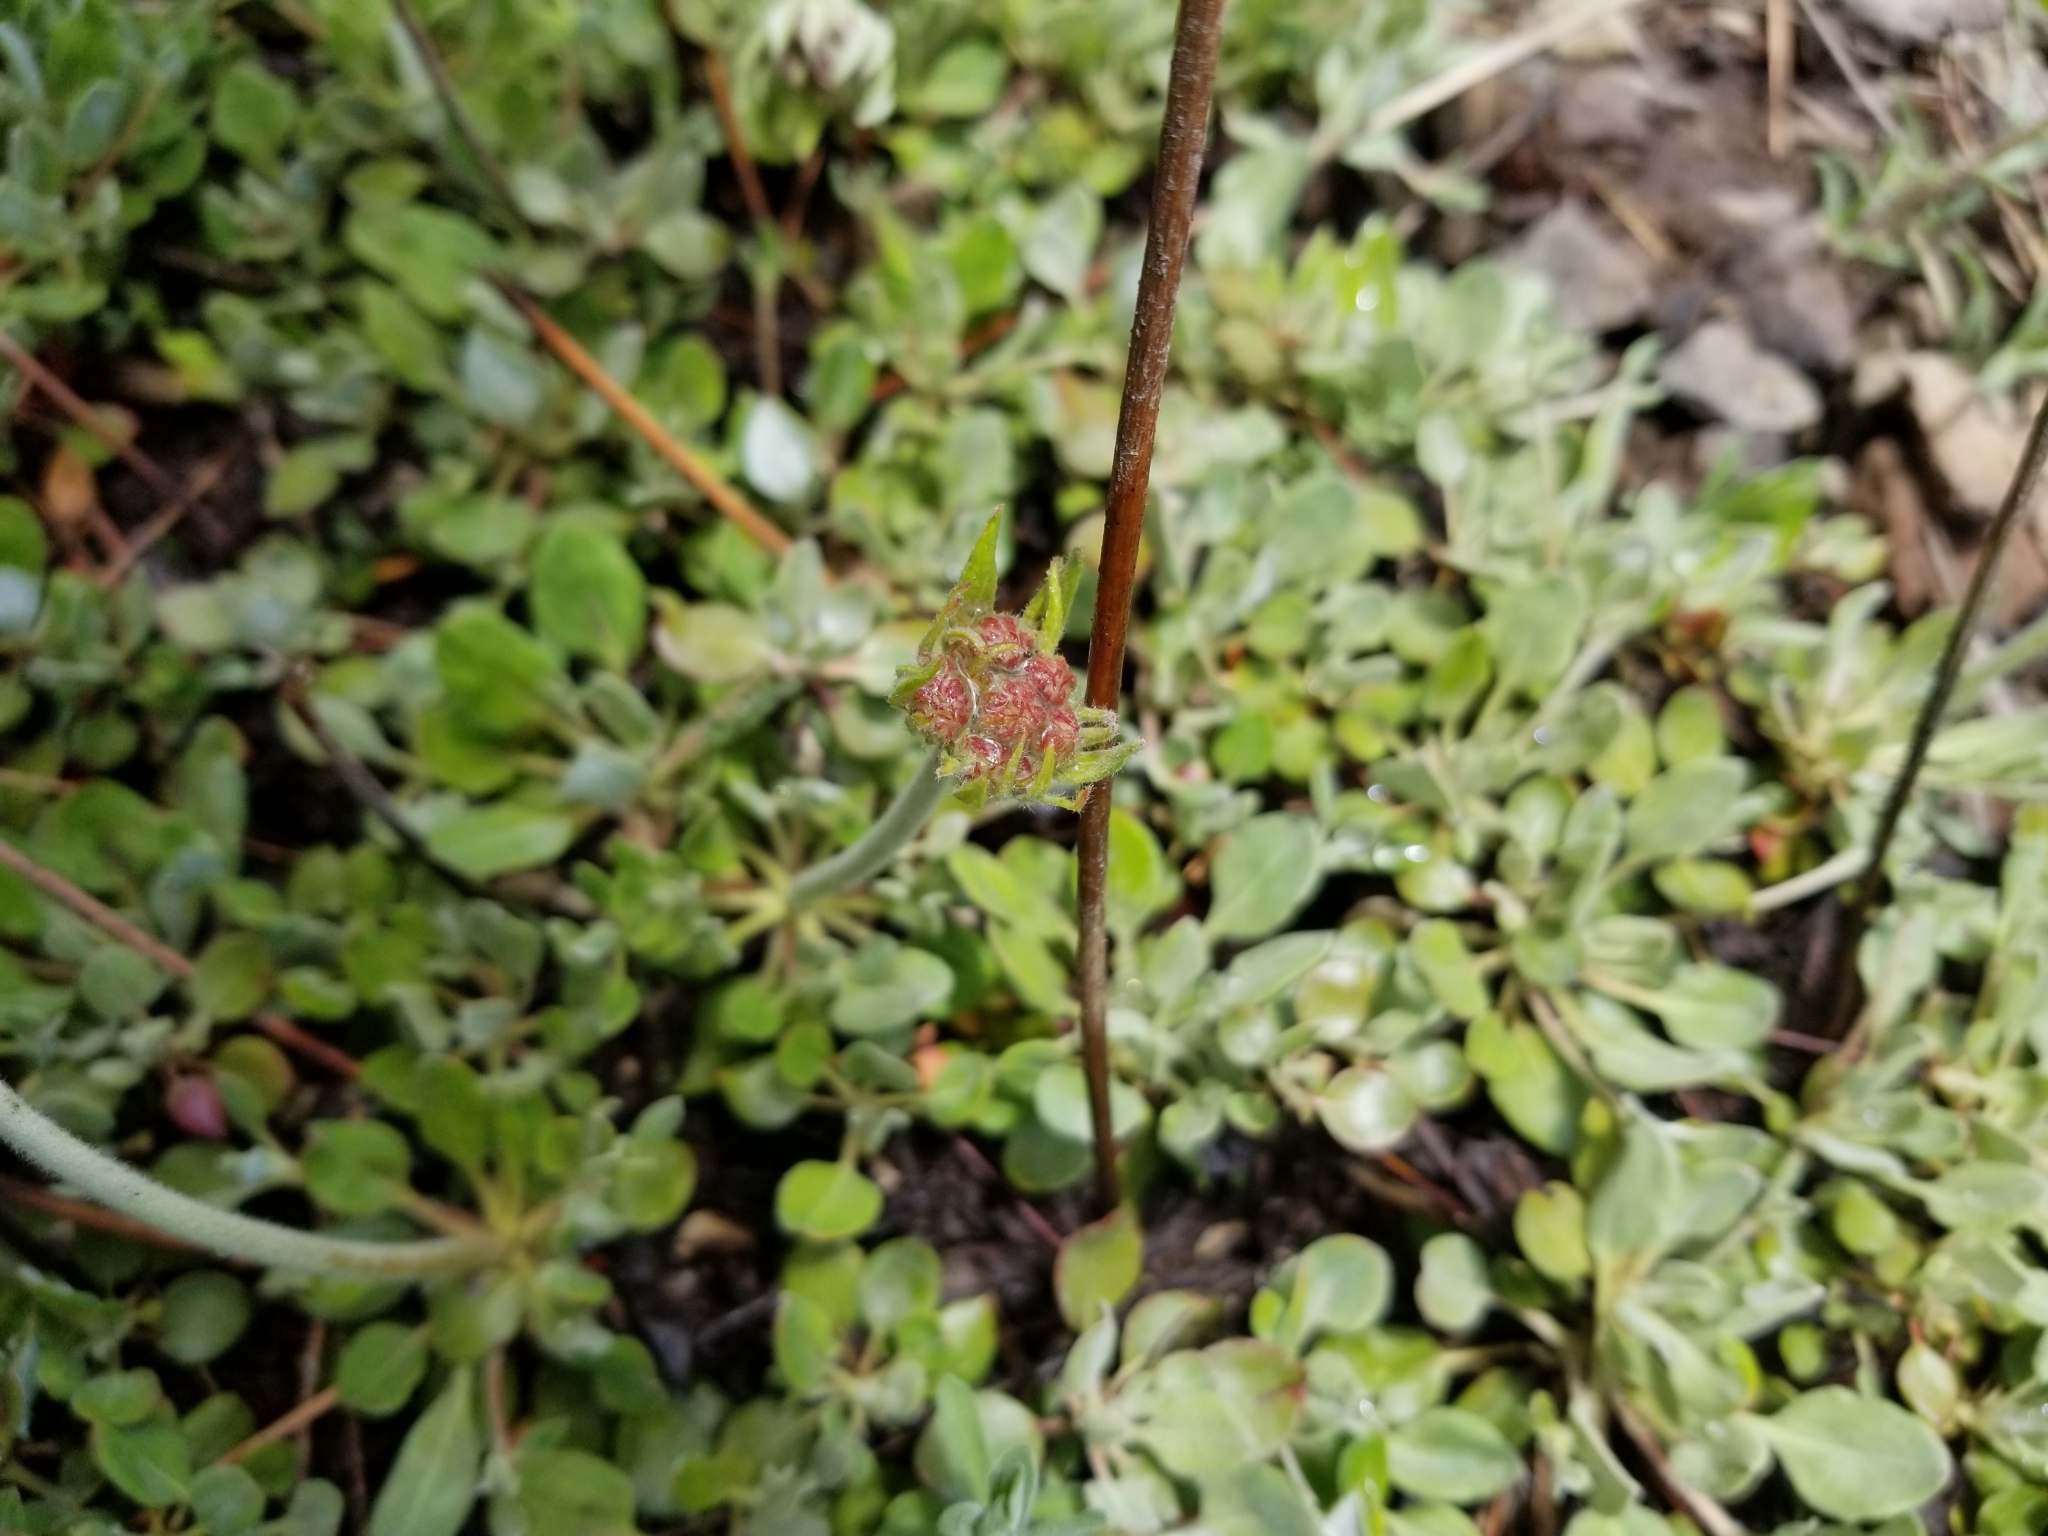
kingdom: Plantae
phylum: Tracheophyta
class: Magnoliopsida
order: Caryophyllales
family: Polygonaceae
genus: Eriogonum
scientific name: Eriogonum ursinum
